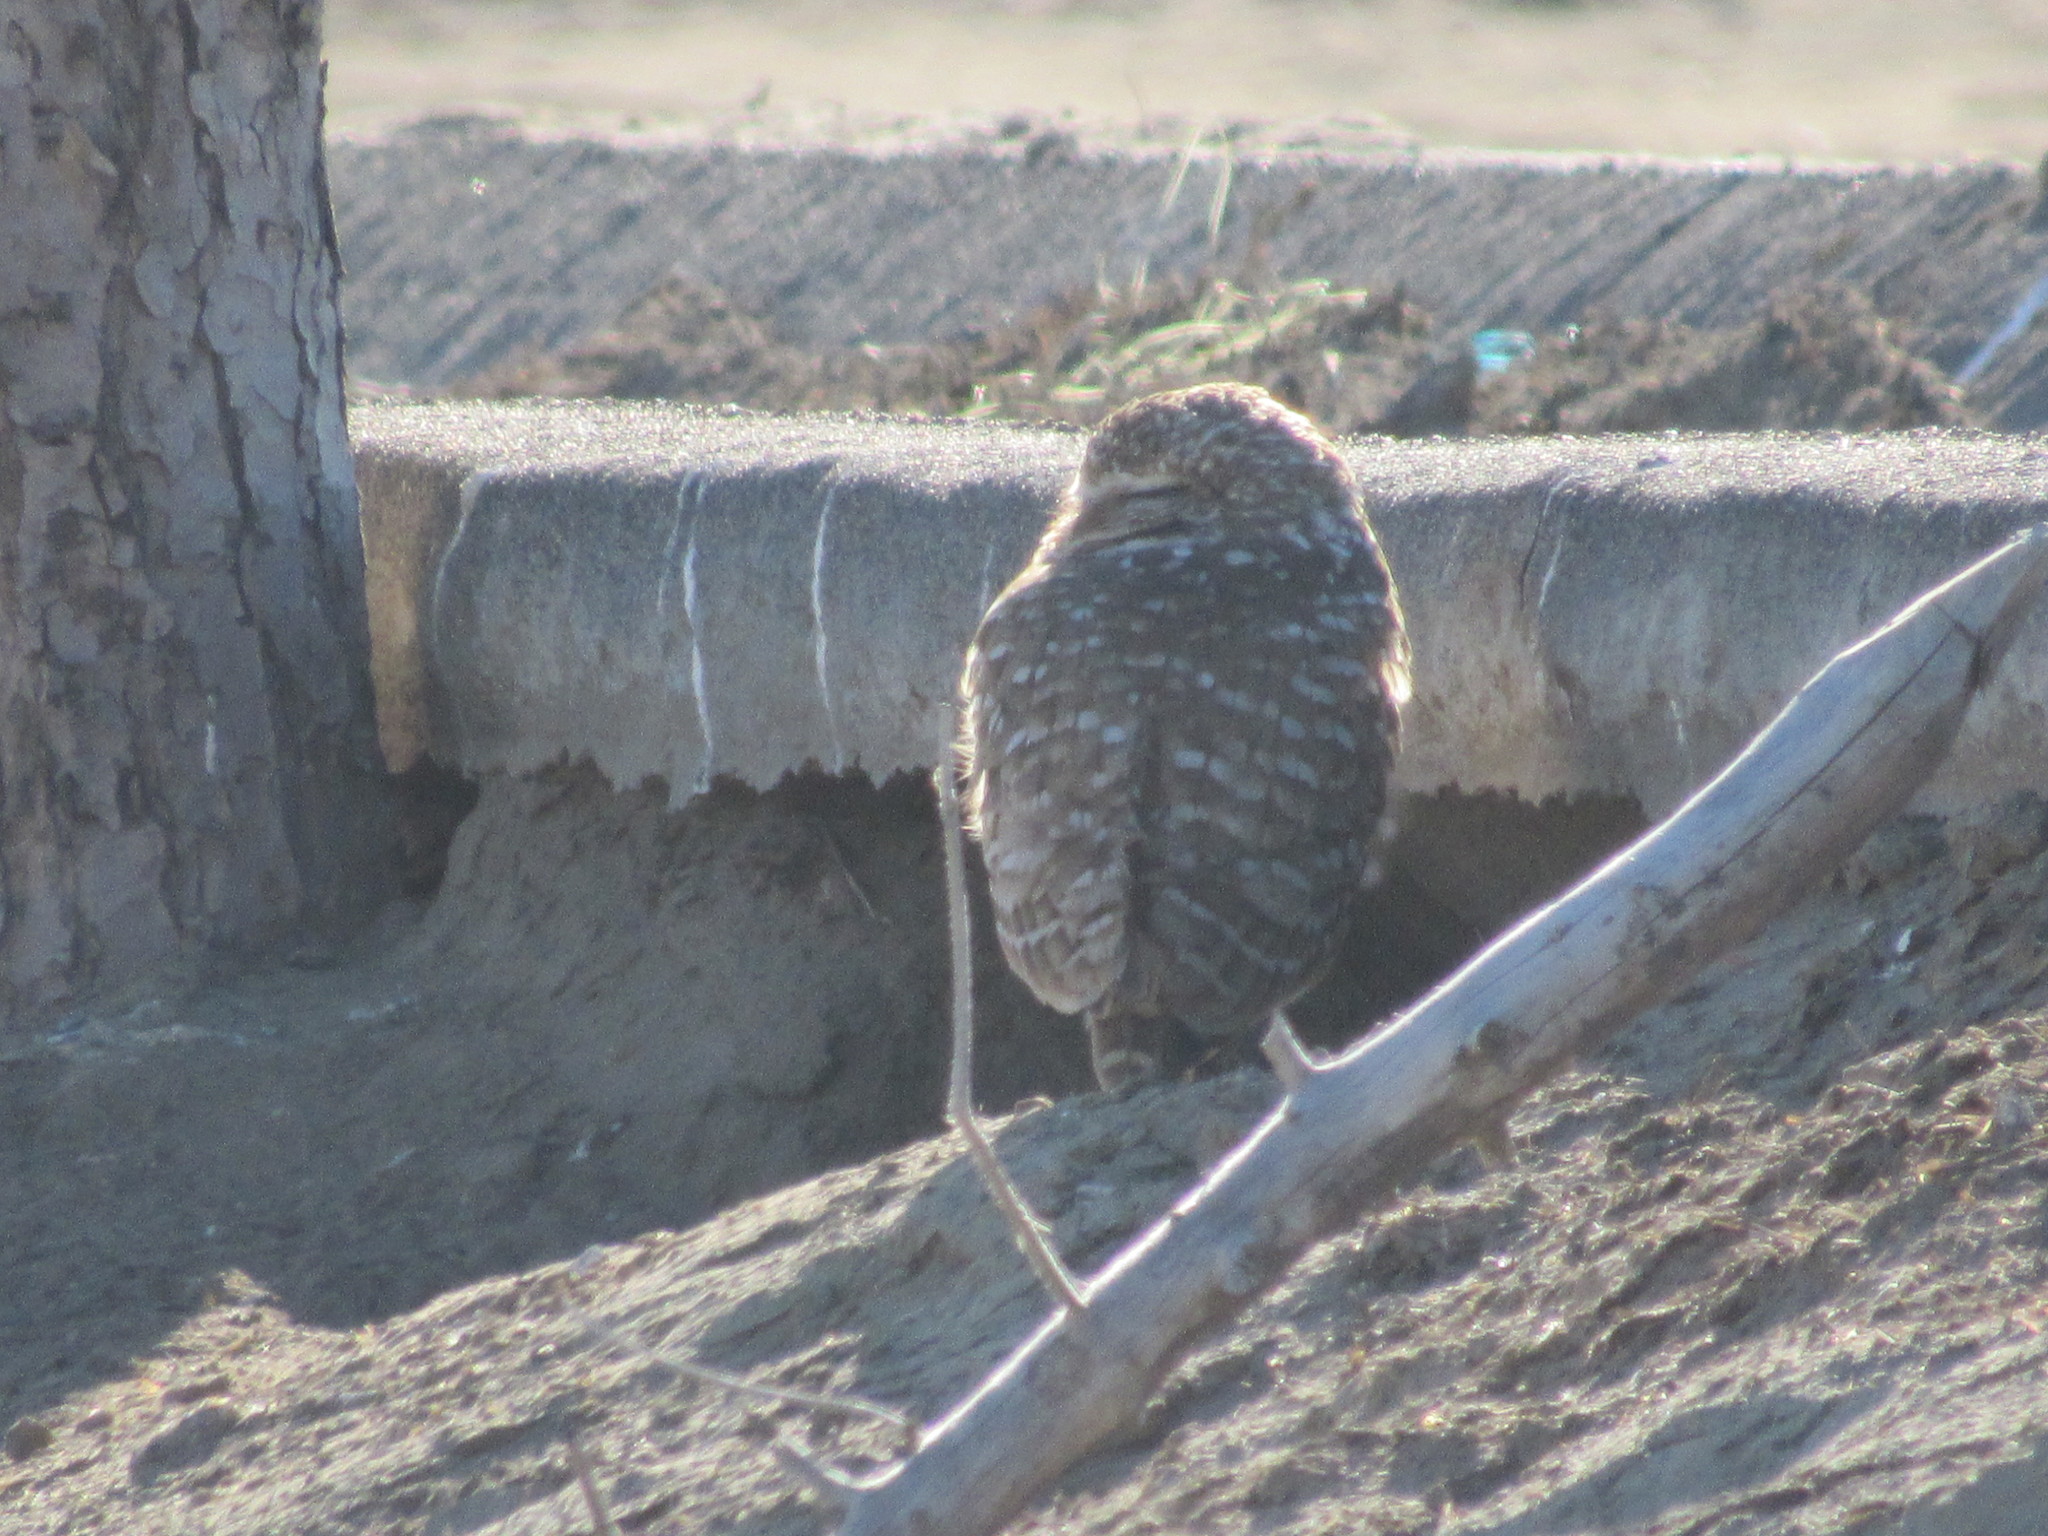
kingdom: Animalia
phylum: Chordata
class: Aves
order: Strigiformes
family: Strigidae
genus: Athene
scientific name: Athene cunicularia
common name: Burrowing owl
